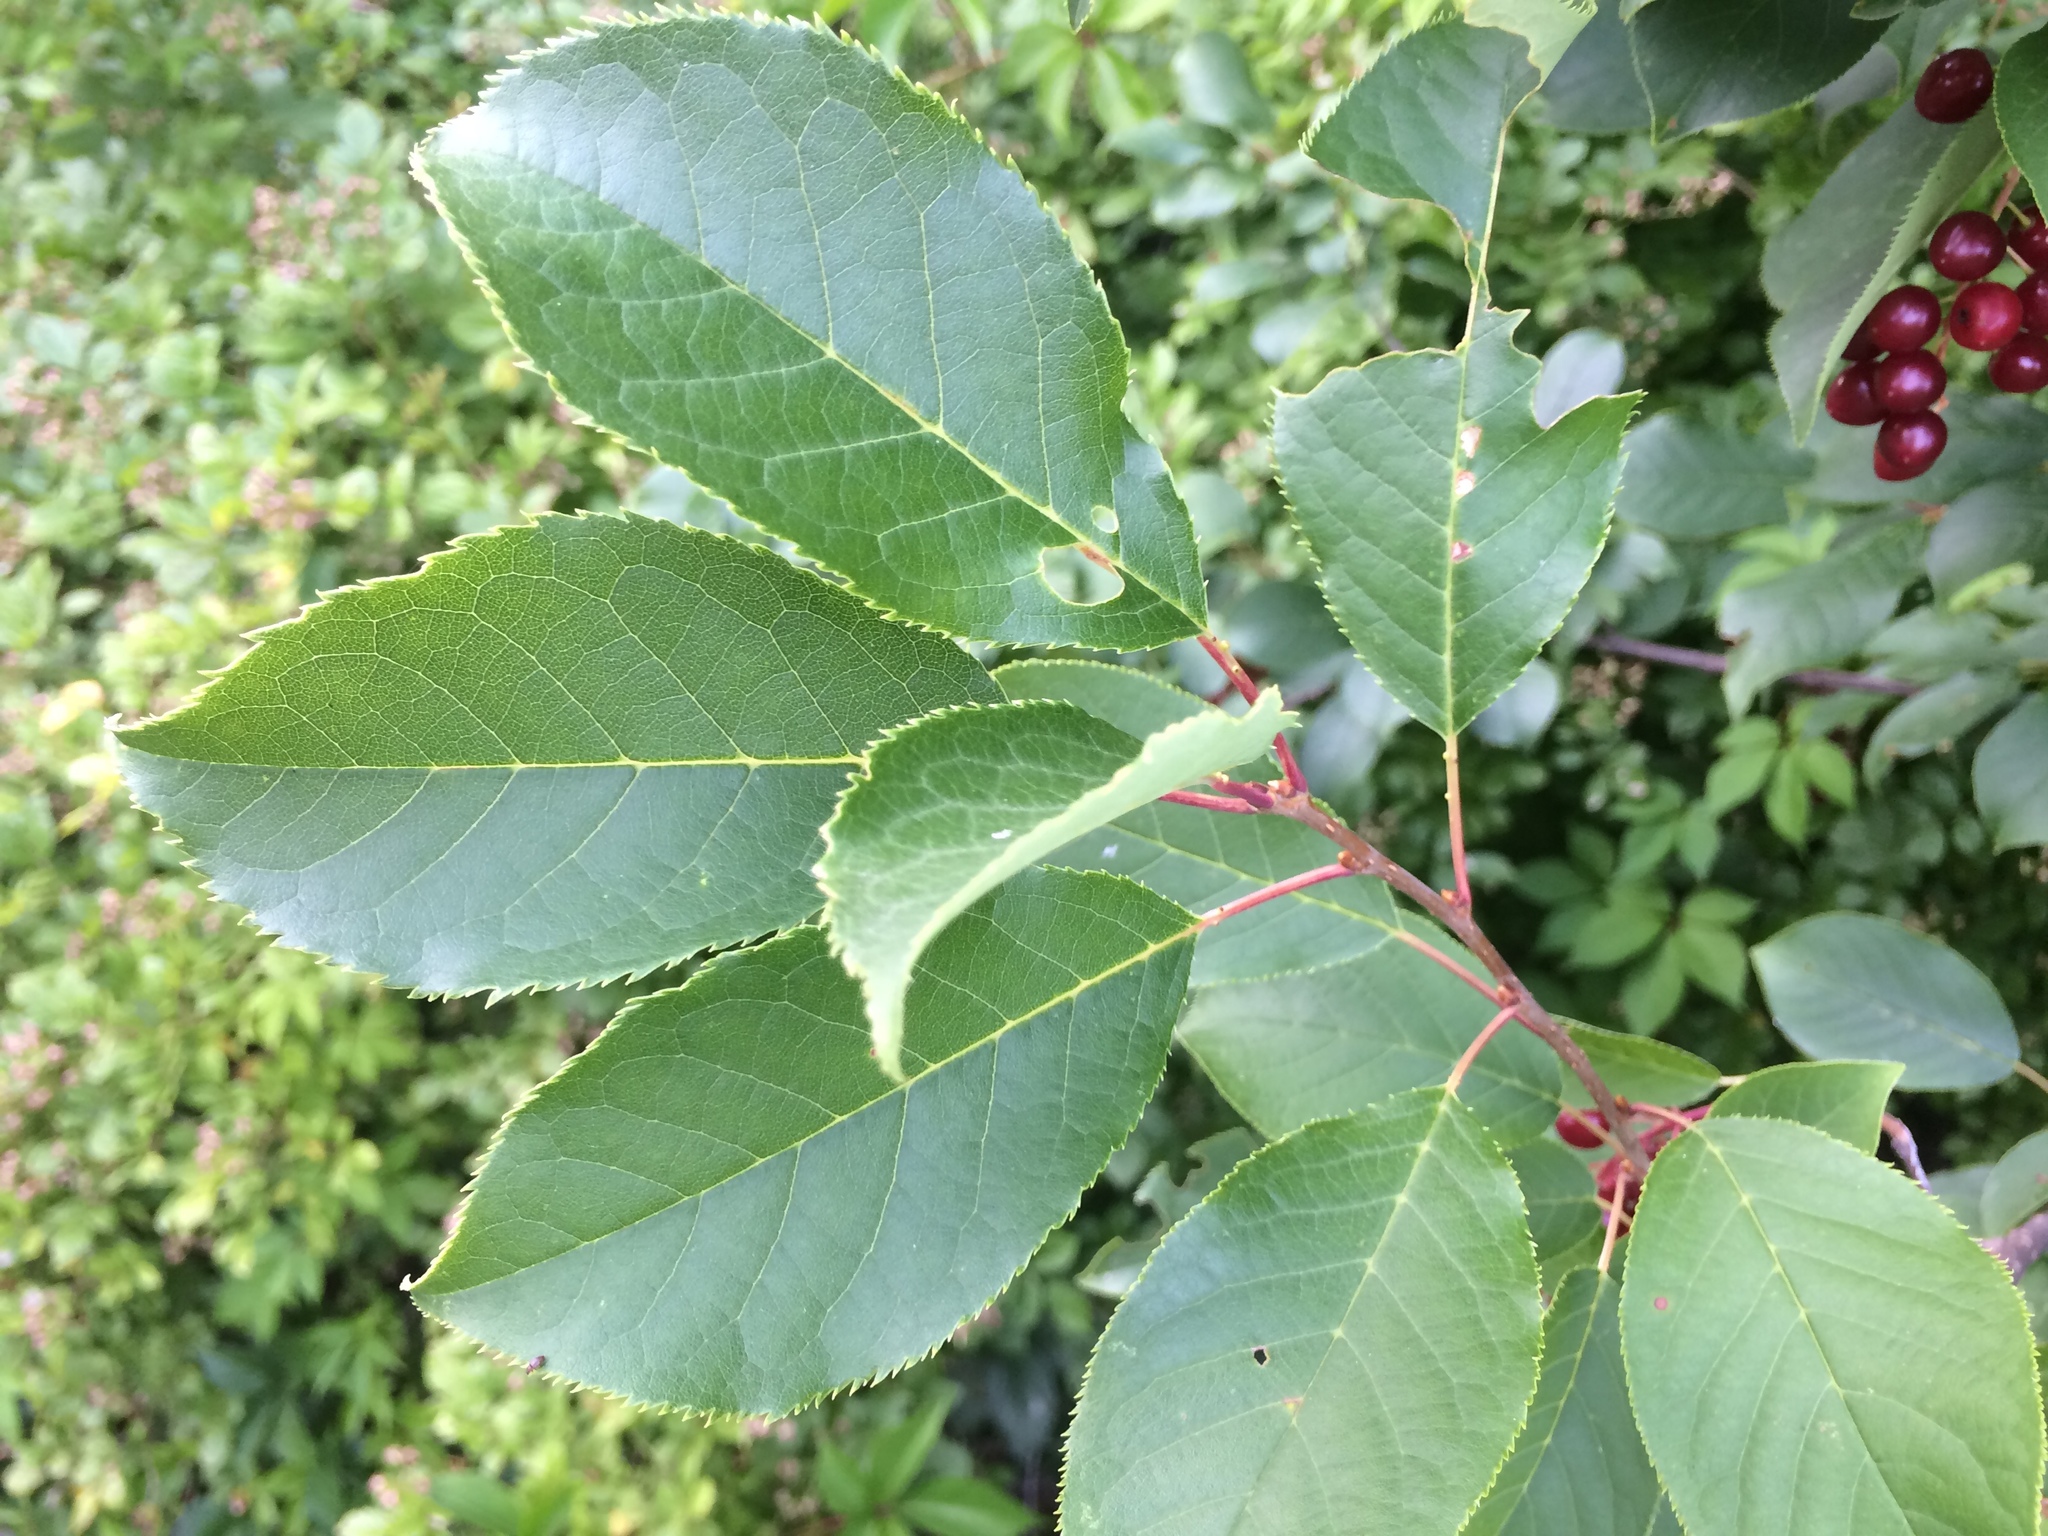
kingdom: Plantae
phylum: Tracheophyta
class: Magnoliopsida
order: Rosales
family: Rosaceae
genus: Prunus
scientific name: Prunus virginiana
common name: Chokecherry
